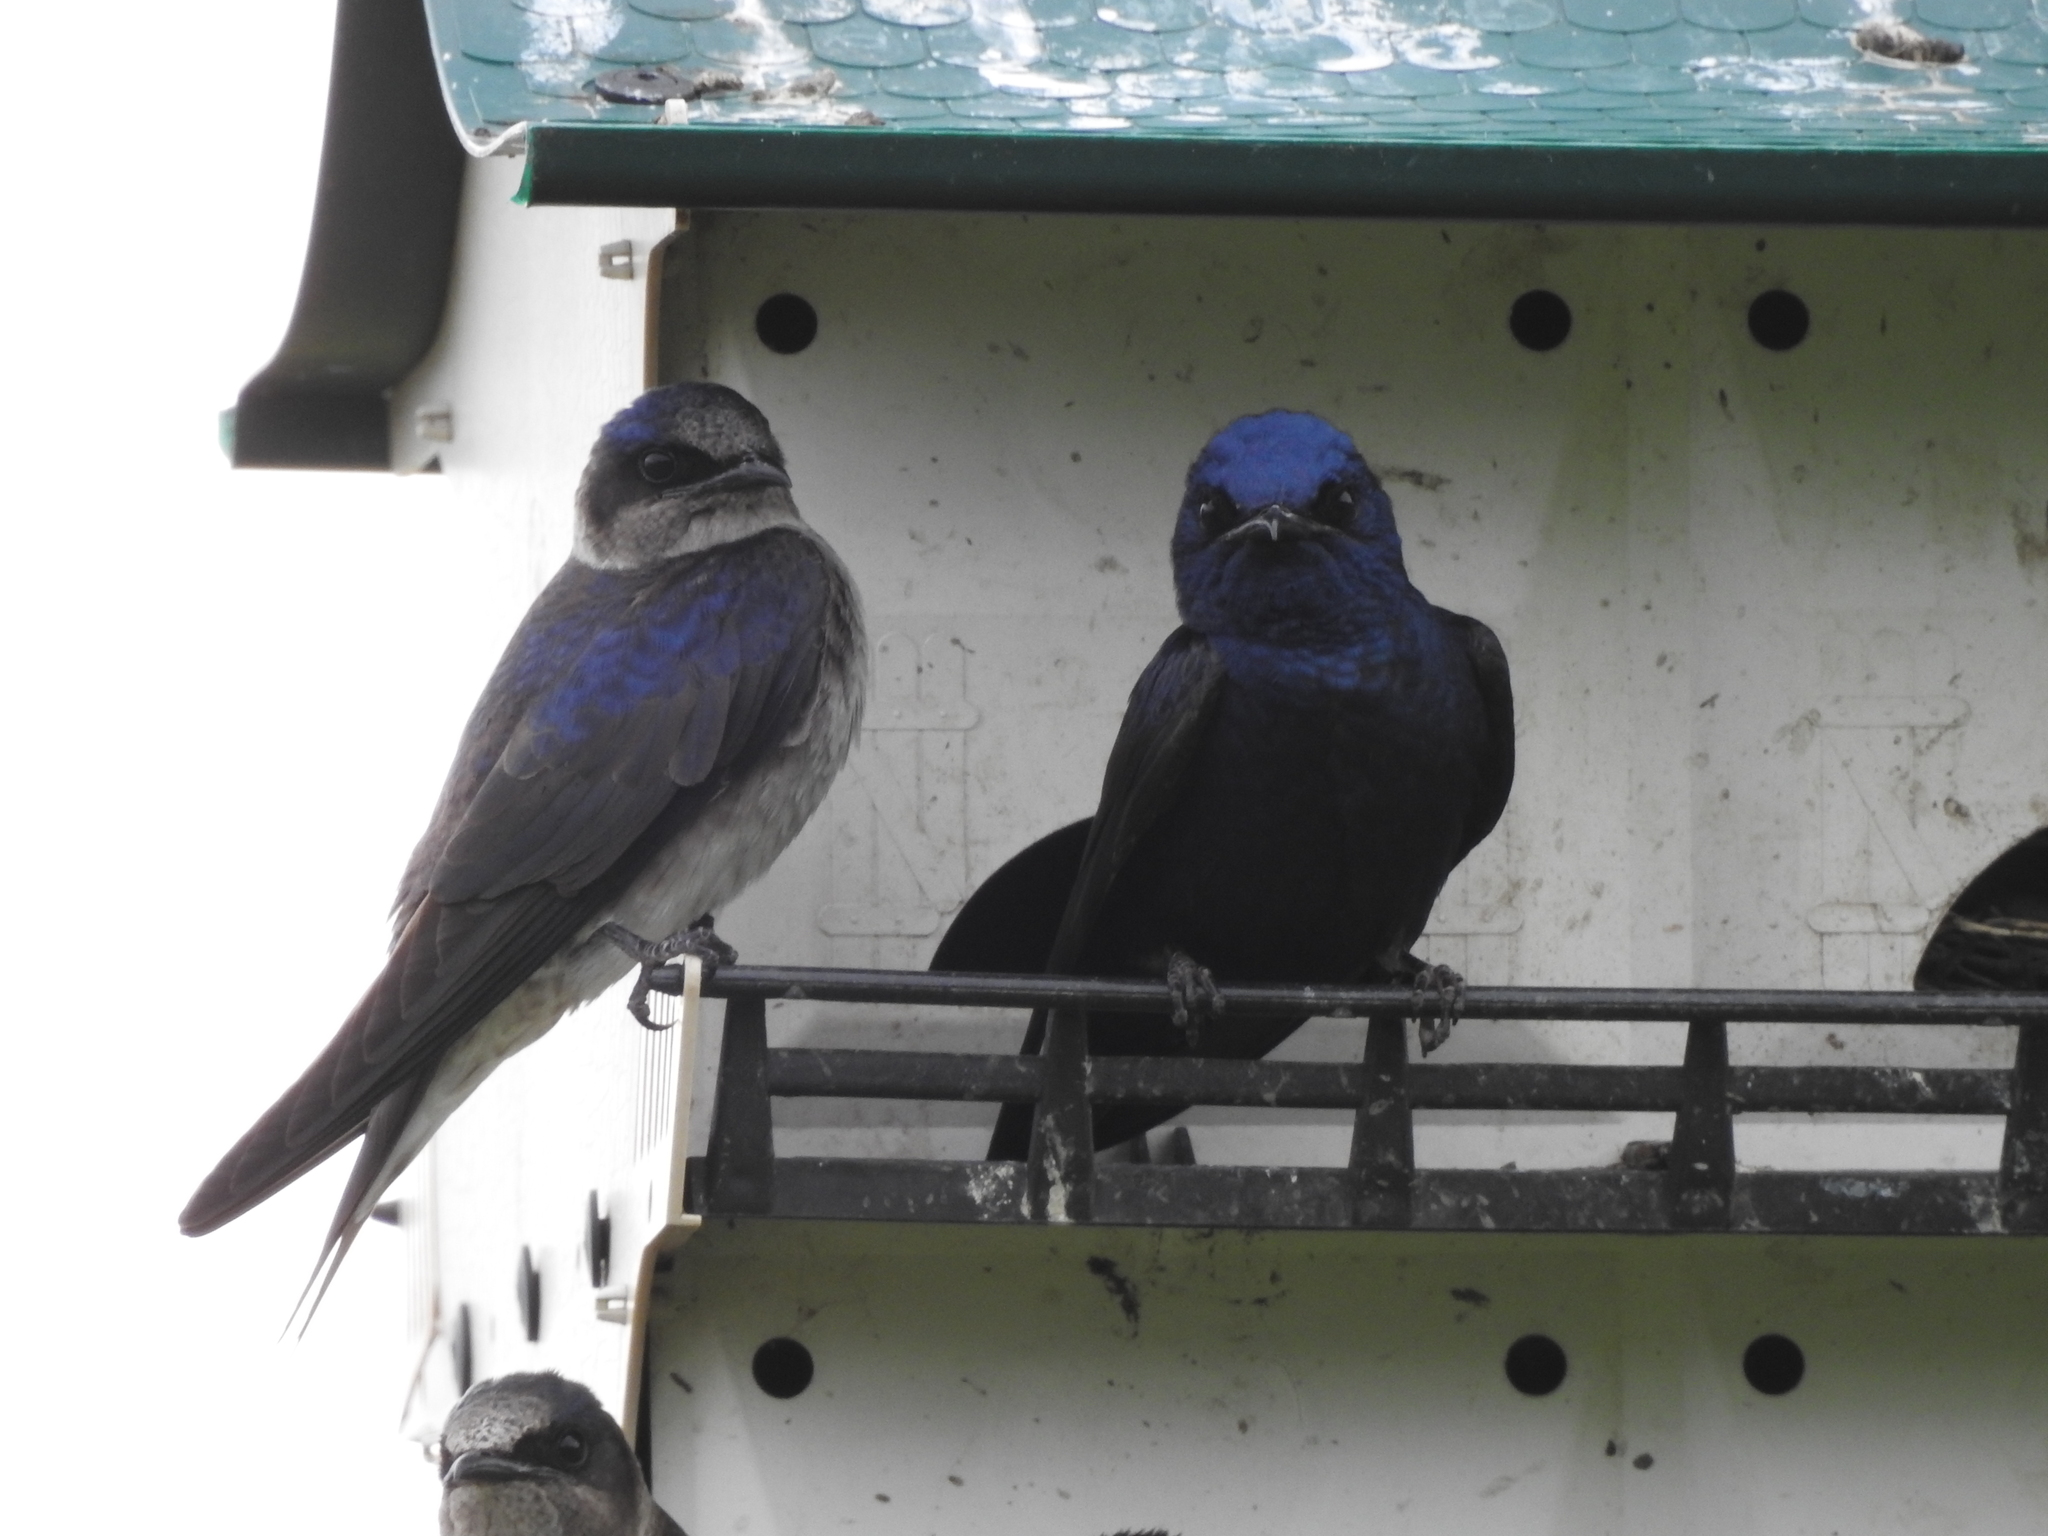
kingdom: Animalia
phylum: Chordata
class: Aves
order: Passeriformes
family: Hirundinidae
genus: Progne
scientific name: Progne subis
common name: Purple martin
